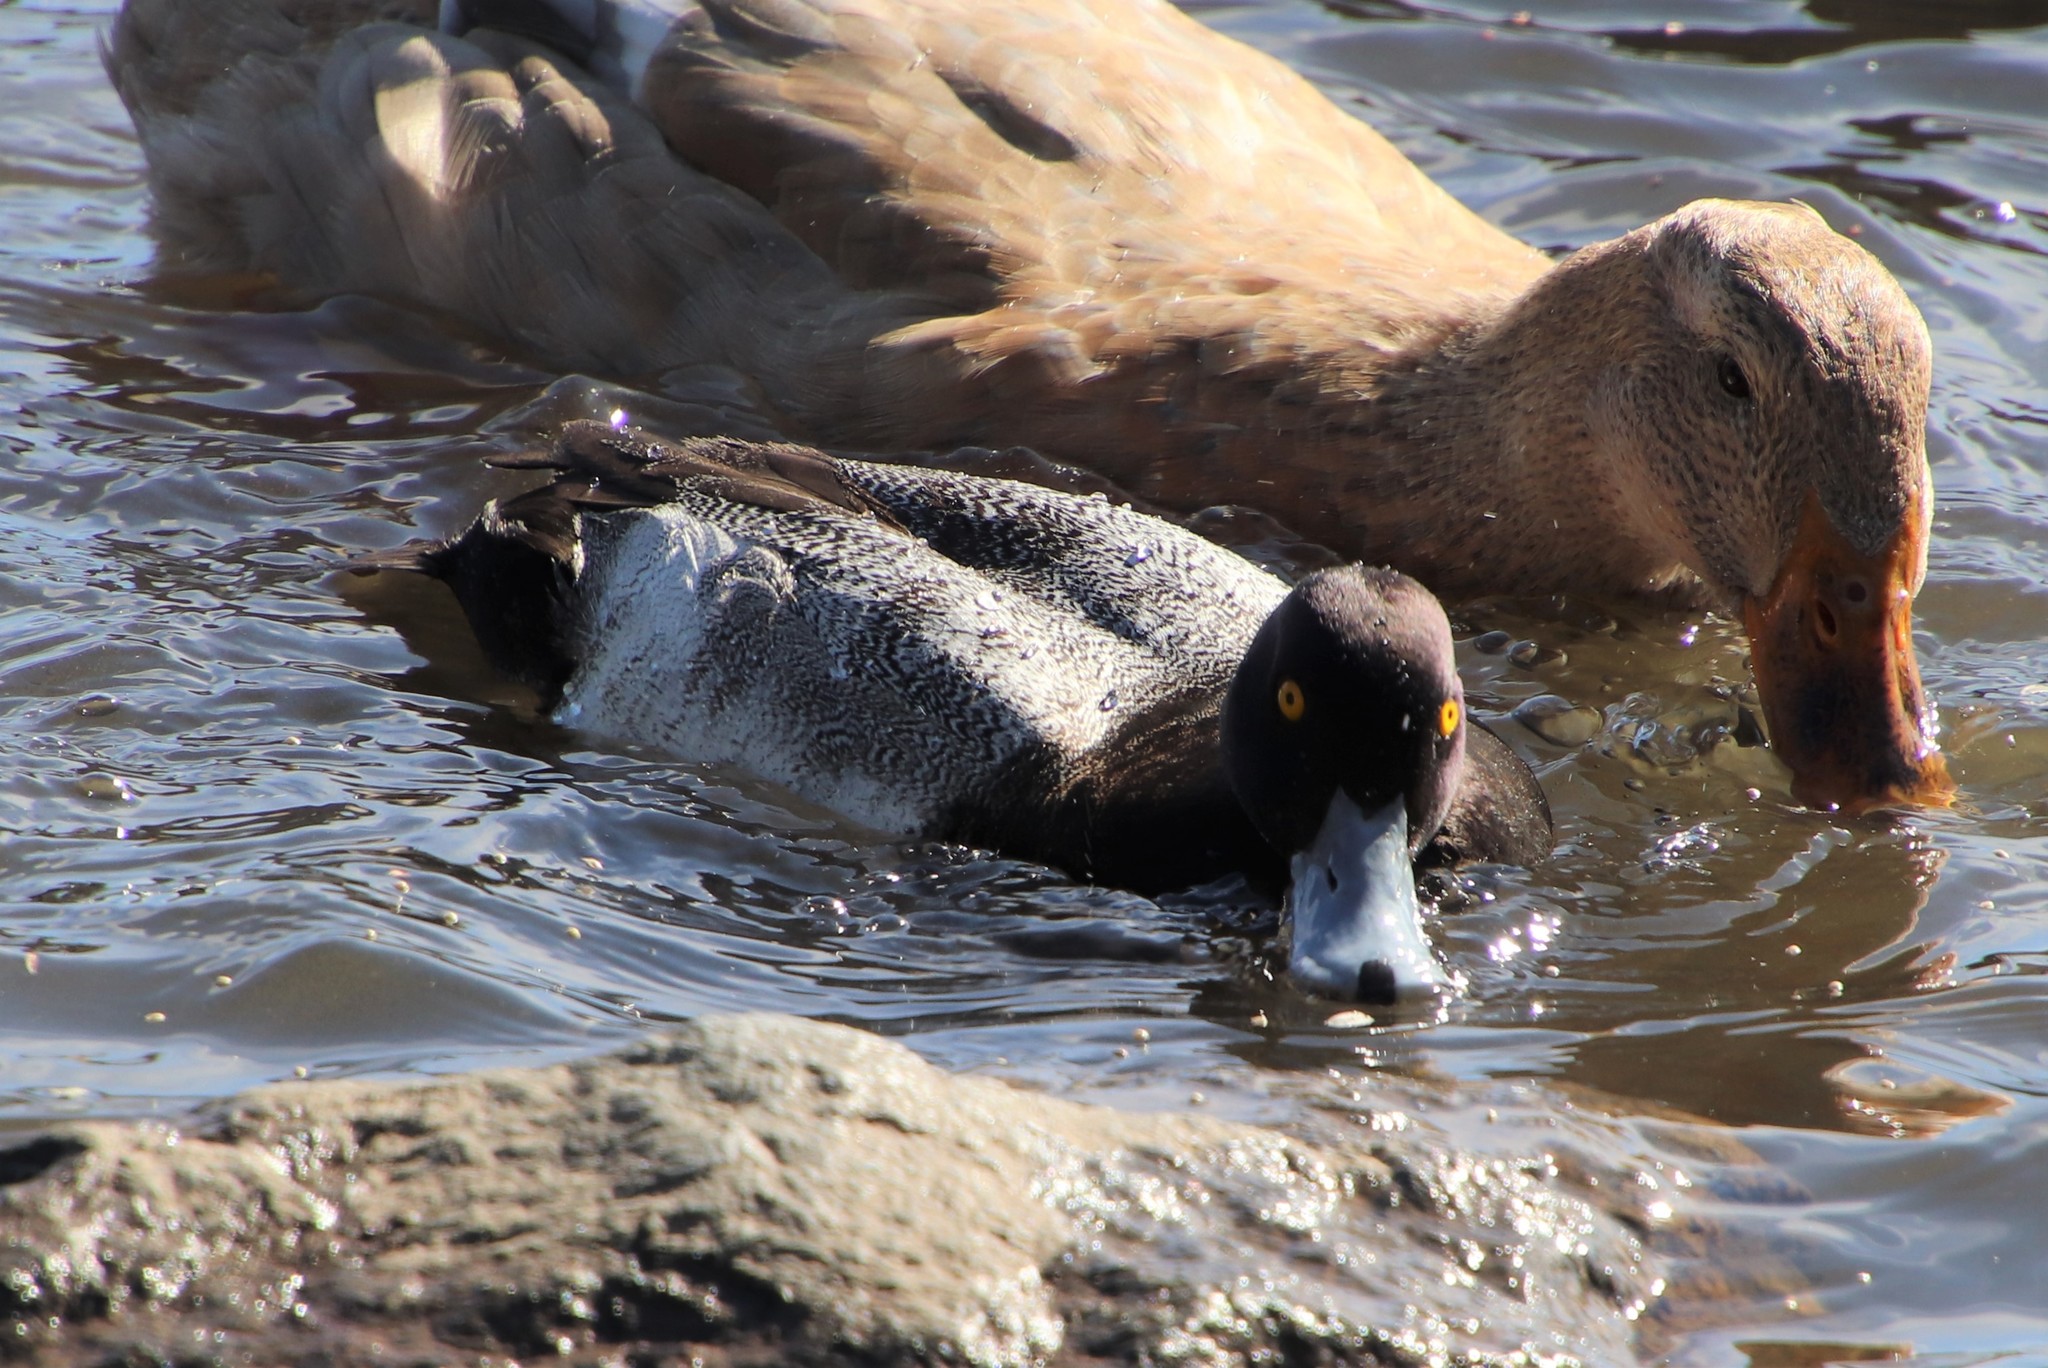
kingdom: Animalia
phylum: Chordata
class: Aves
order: Anseriformes
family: Anatidae
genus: Aythya
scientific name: Aythya affinis
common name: Lesser scaup
